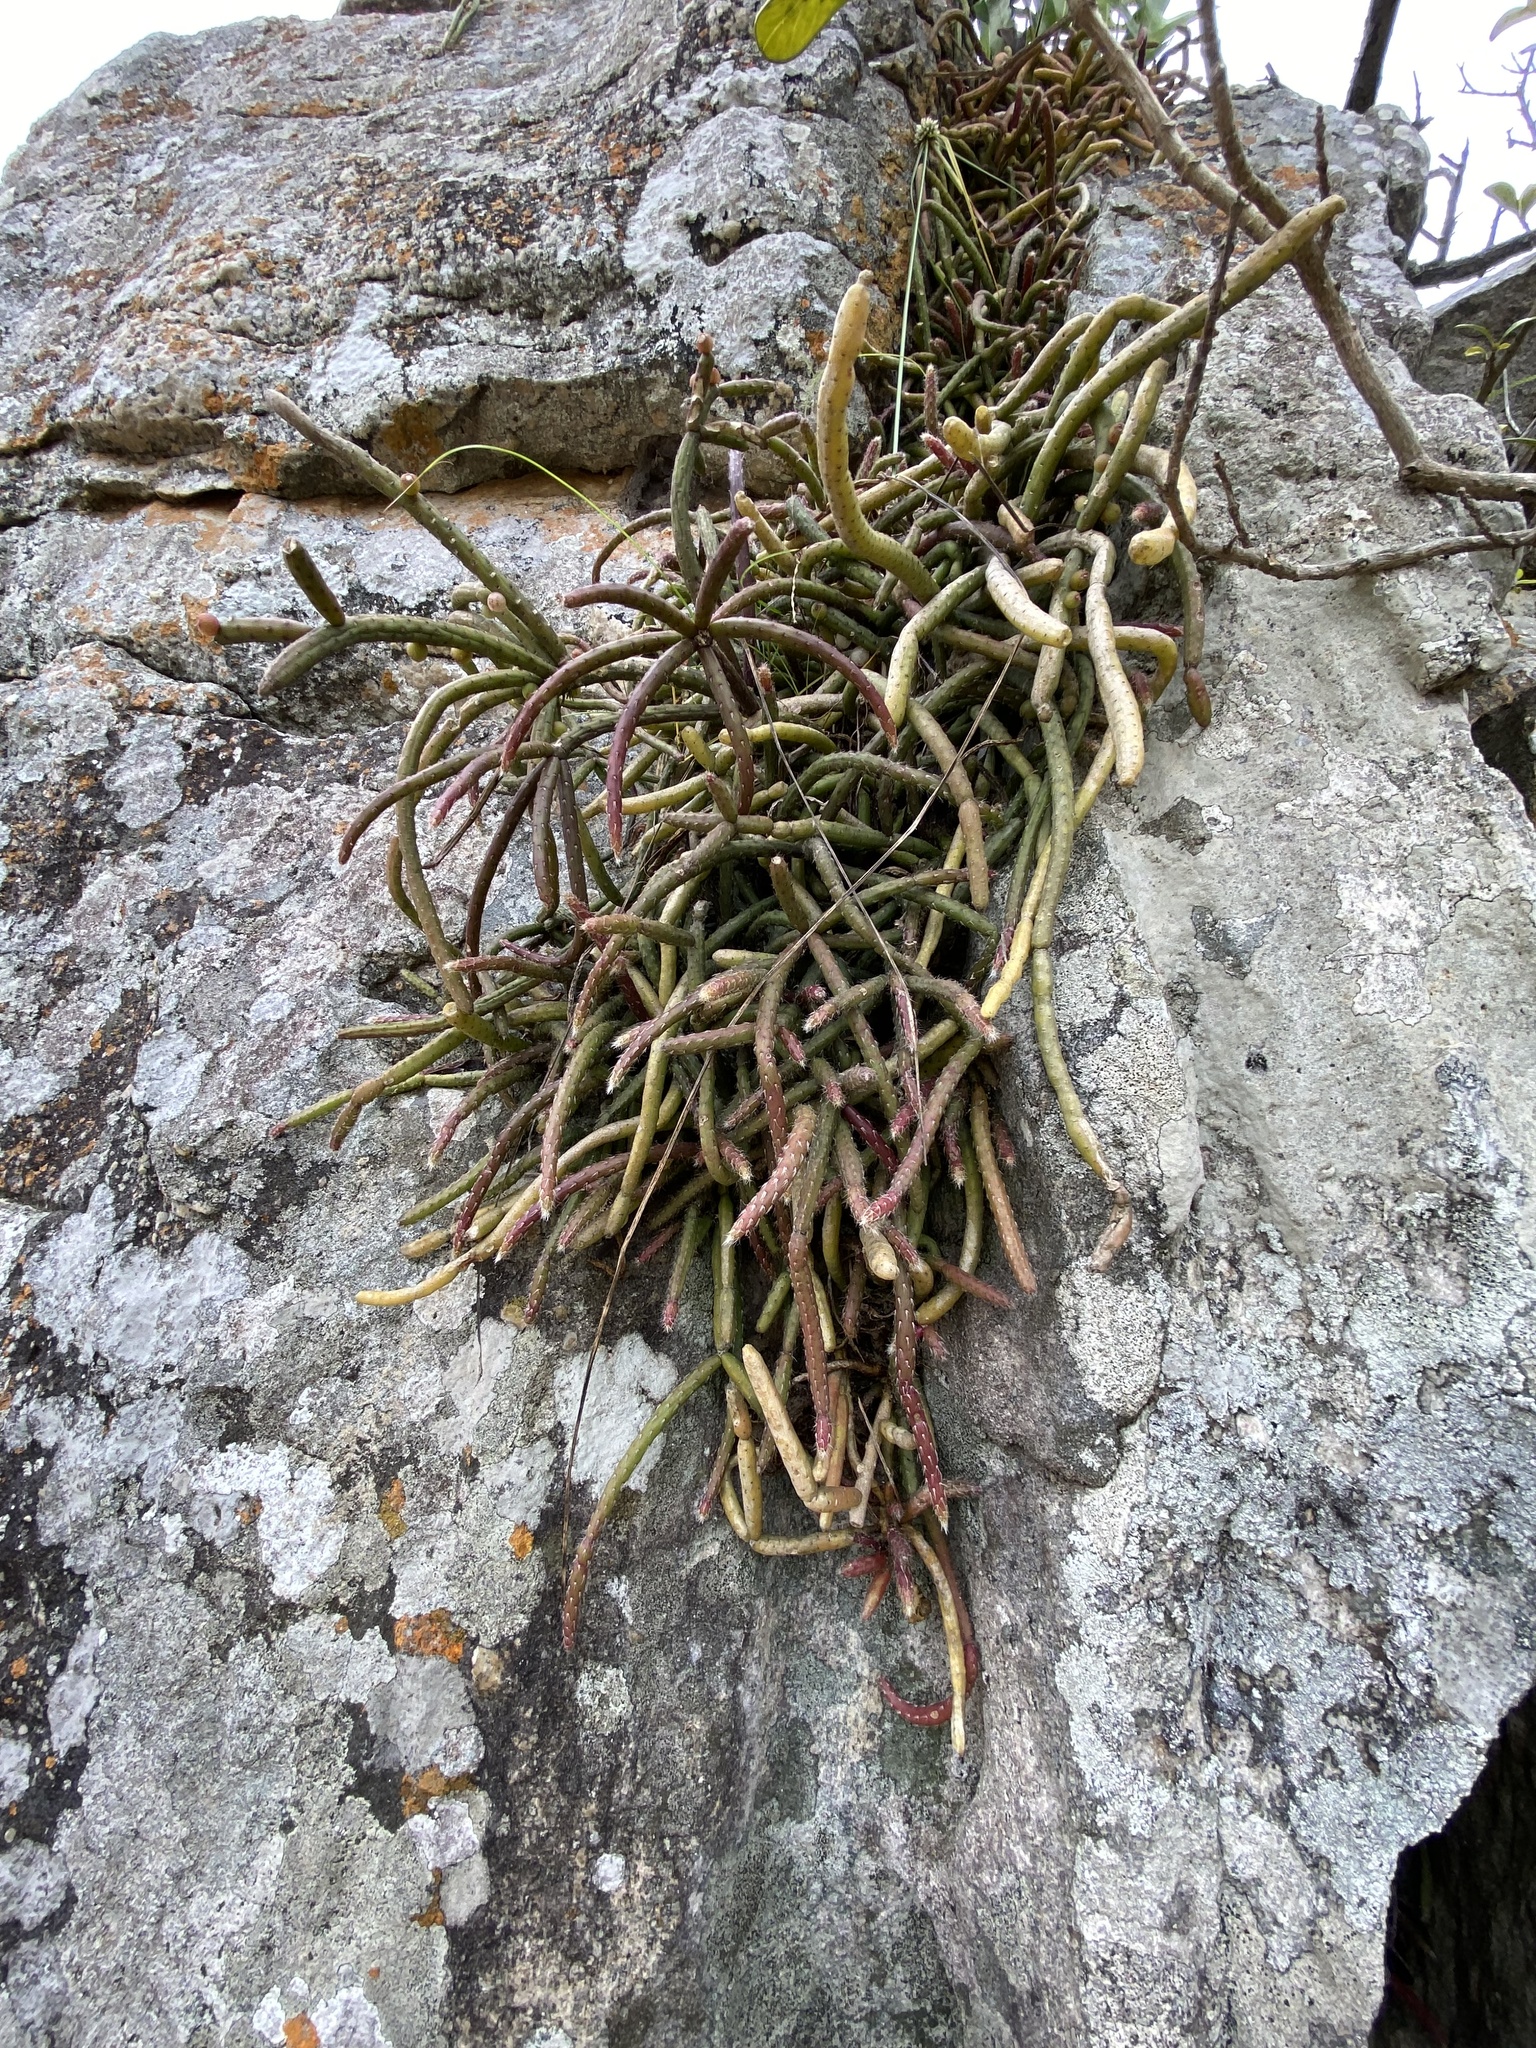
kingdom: Plantae
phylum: Tracheophyta
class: Magnoliopsida
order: Caryophyllales
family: Cactaceae
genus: Rhipsalis
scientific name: Rhipsalis baccifera
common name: Mistletoe cactus
